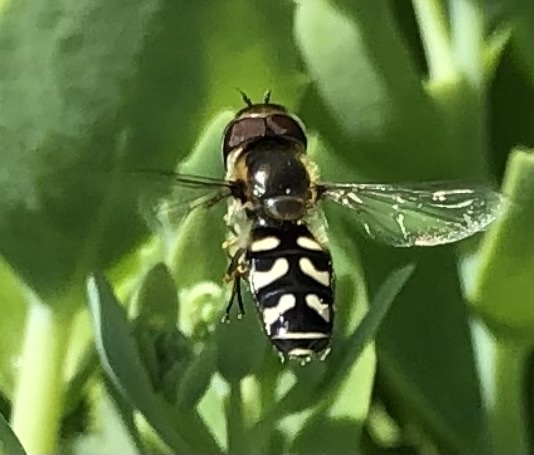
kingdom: Animalia
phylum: Arthropoda
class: Insecta
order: Diptera
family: Syrphidae
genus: Scaeva
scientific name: Scaeva pyrastri
